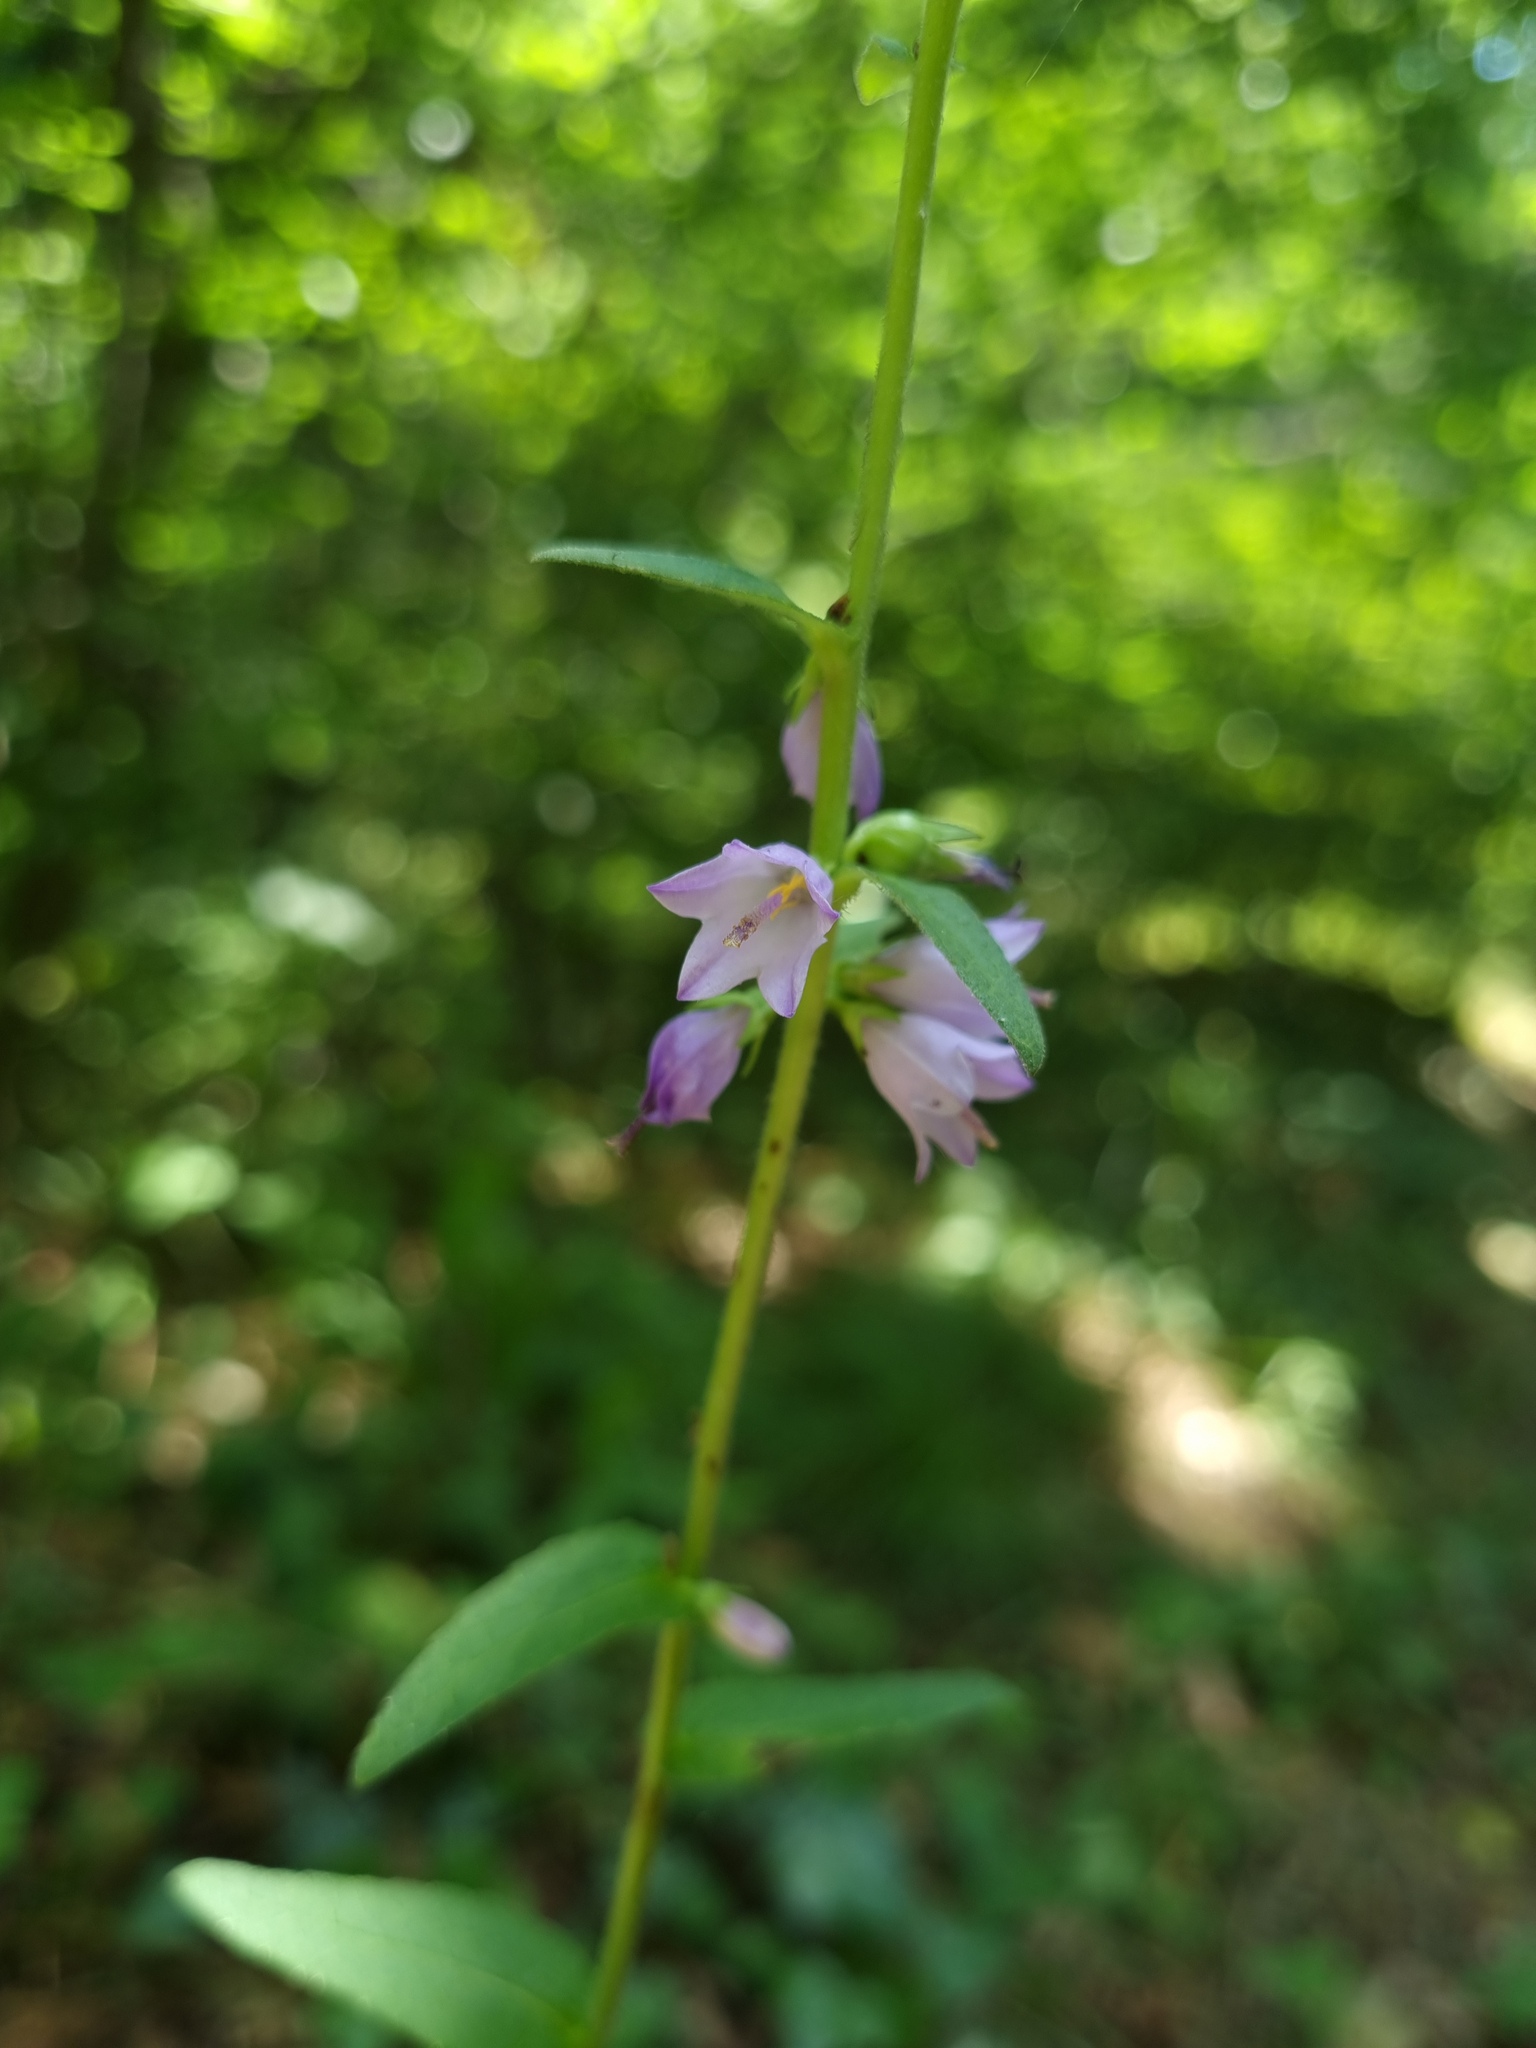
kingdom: Plantae
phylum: Tracheophyta
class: Magnoliopsida
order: Asterales
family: Campanulaceae
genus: Campanula
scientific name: Campanula bononiensis
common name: Pale bellflower
